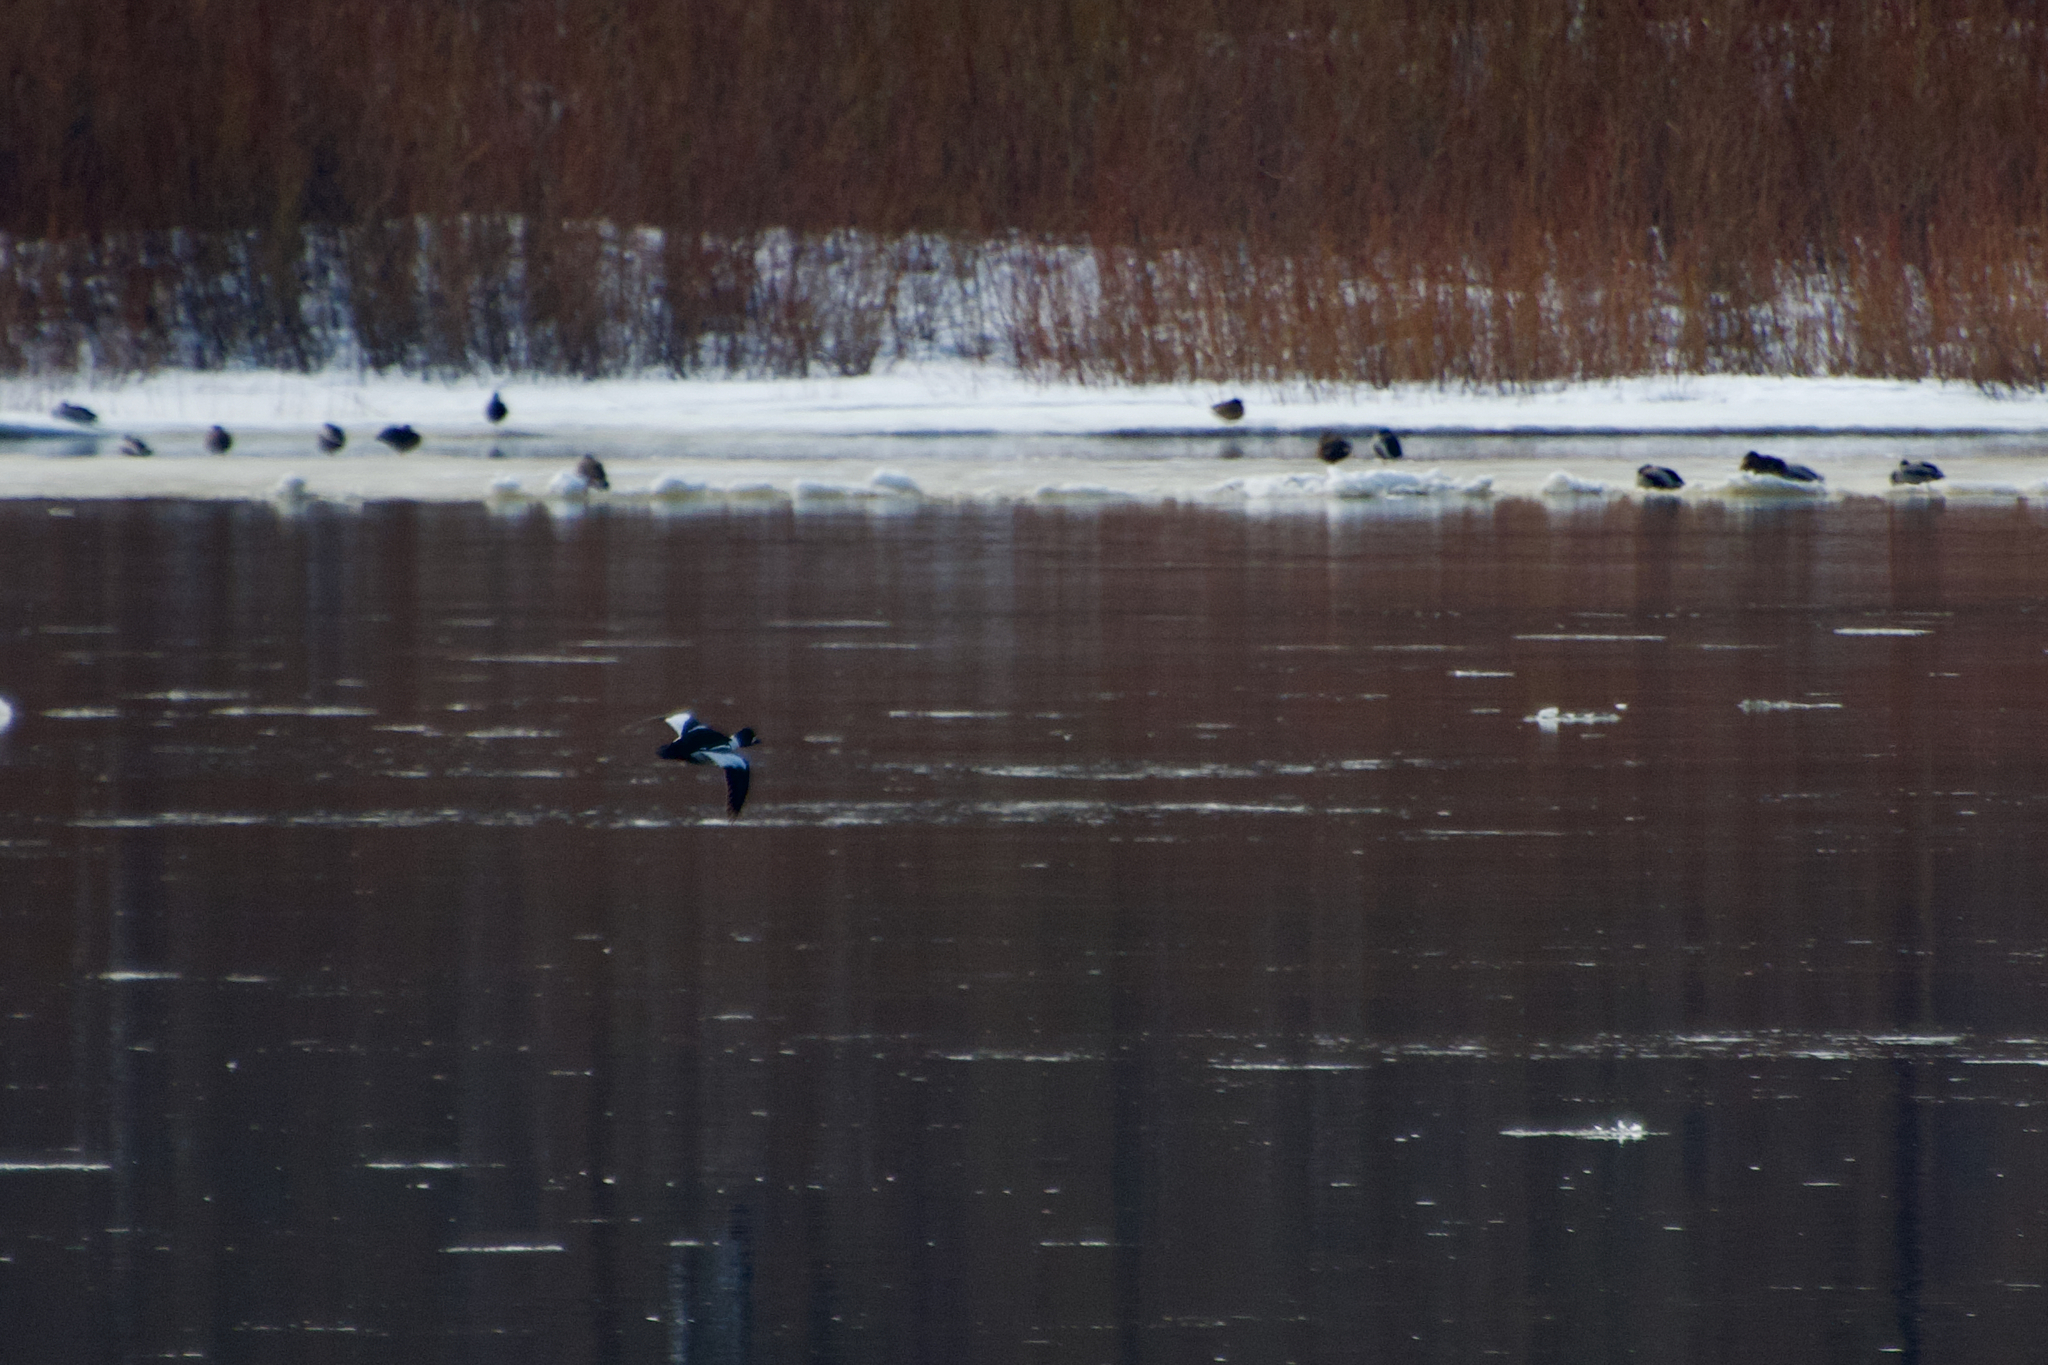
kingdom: Animalia
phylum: Chordata
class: Aves
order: Anseriformes
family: Anatidae
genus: Bucephala
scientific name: Bucephala clangula
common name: Common goldeneye
